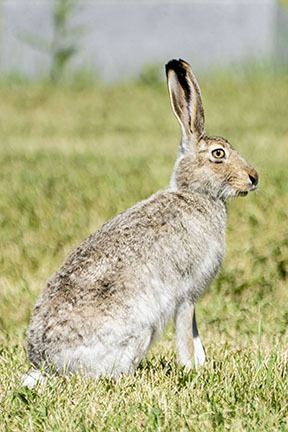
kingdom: Animalia
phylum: Chordata
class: Mammalia
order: Lagomorpha
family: Leporidae
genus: Lepus
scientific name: Lepus townsendii
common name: White-tailed jackrabbit
